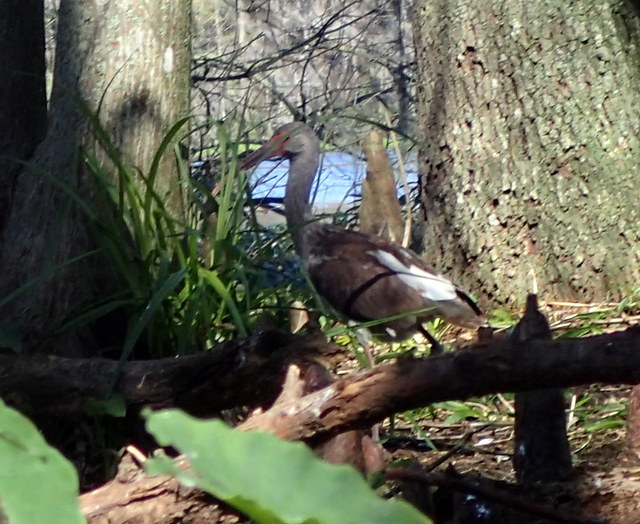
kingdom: Animalia
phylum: Chordata
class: Aves
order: Pelecaniformes
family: Threskiornithidae
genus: Eudocimus
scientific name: Eudocimus albus
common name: White ibis
